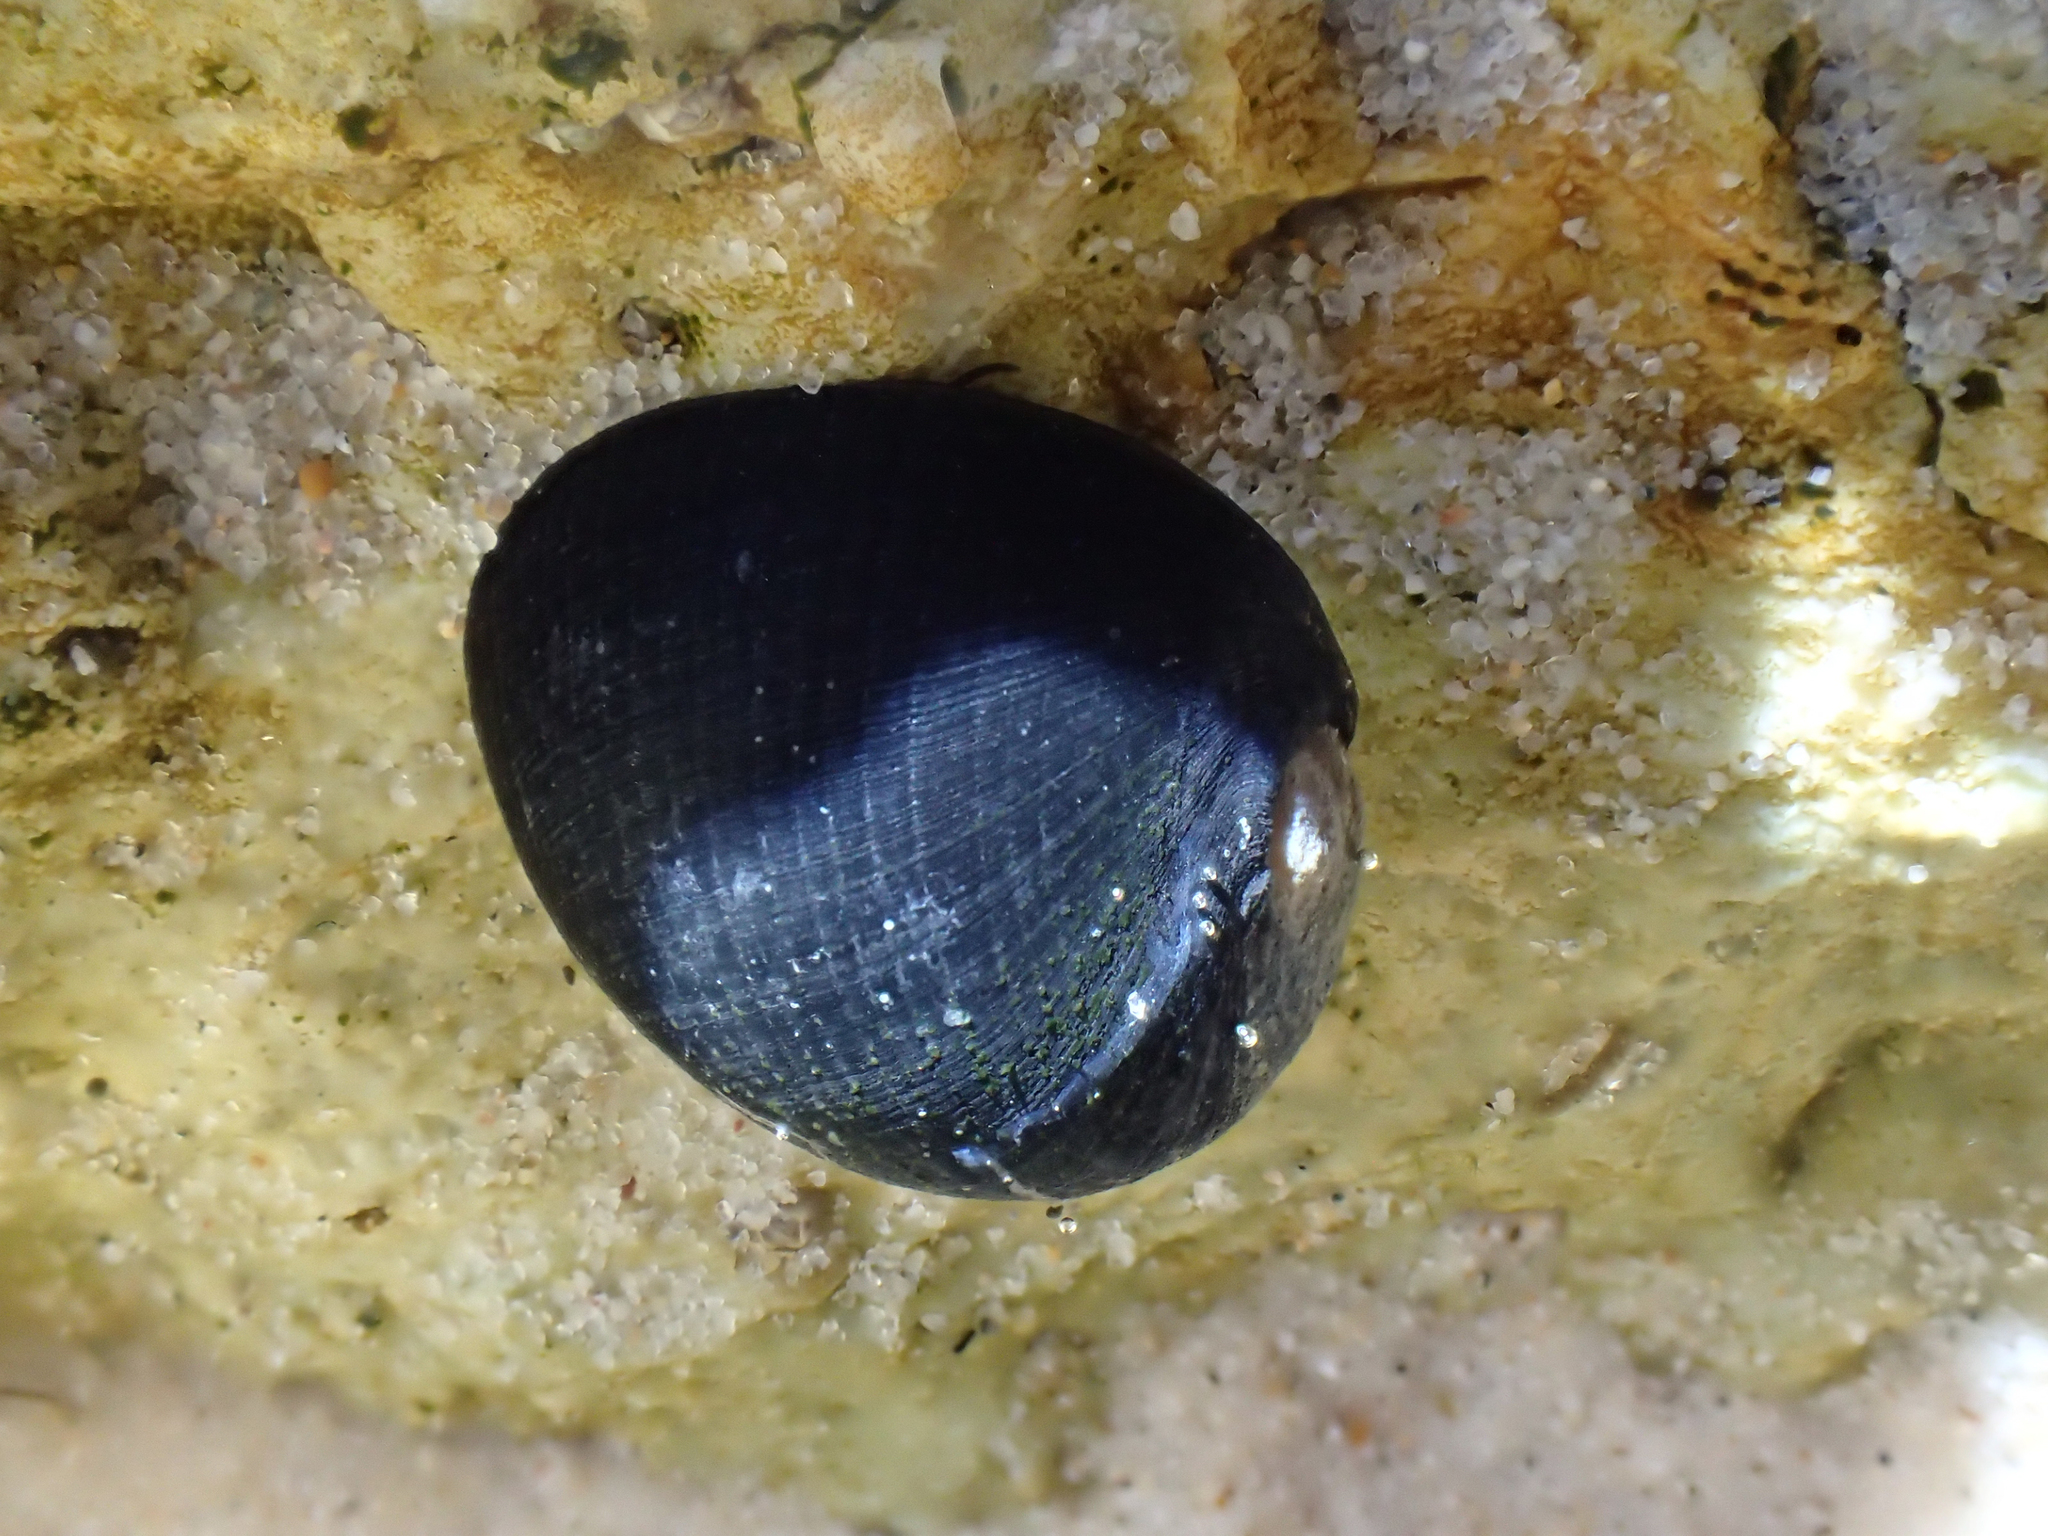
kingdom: Animalia
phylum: Mollusca
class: Gastropoda
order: Cycloneritida
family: Neritidae
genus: Nerita
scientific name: Nerita melanotragus
